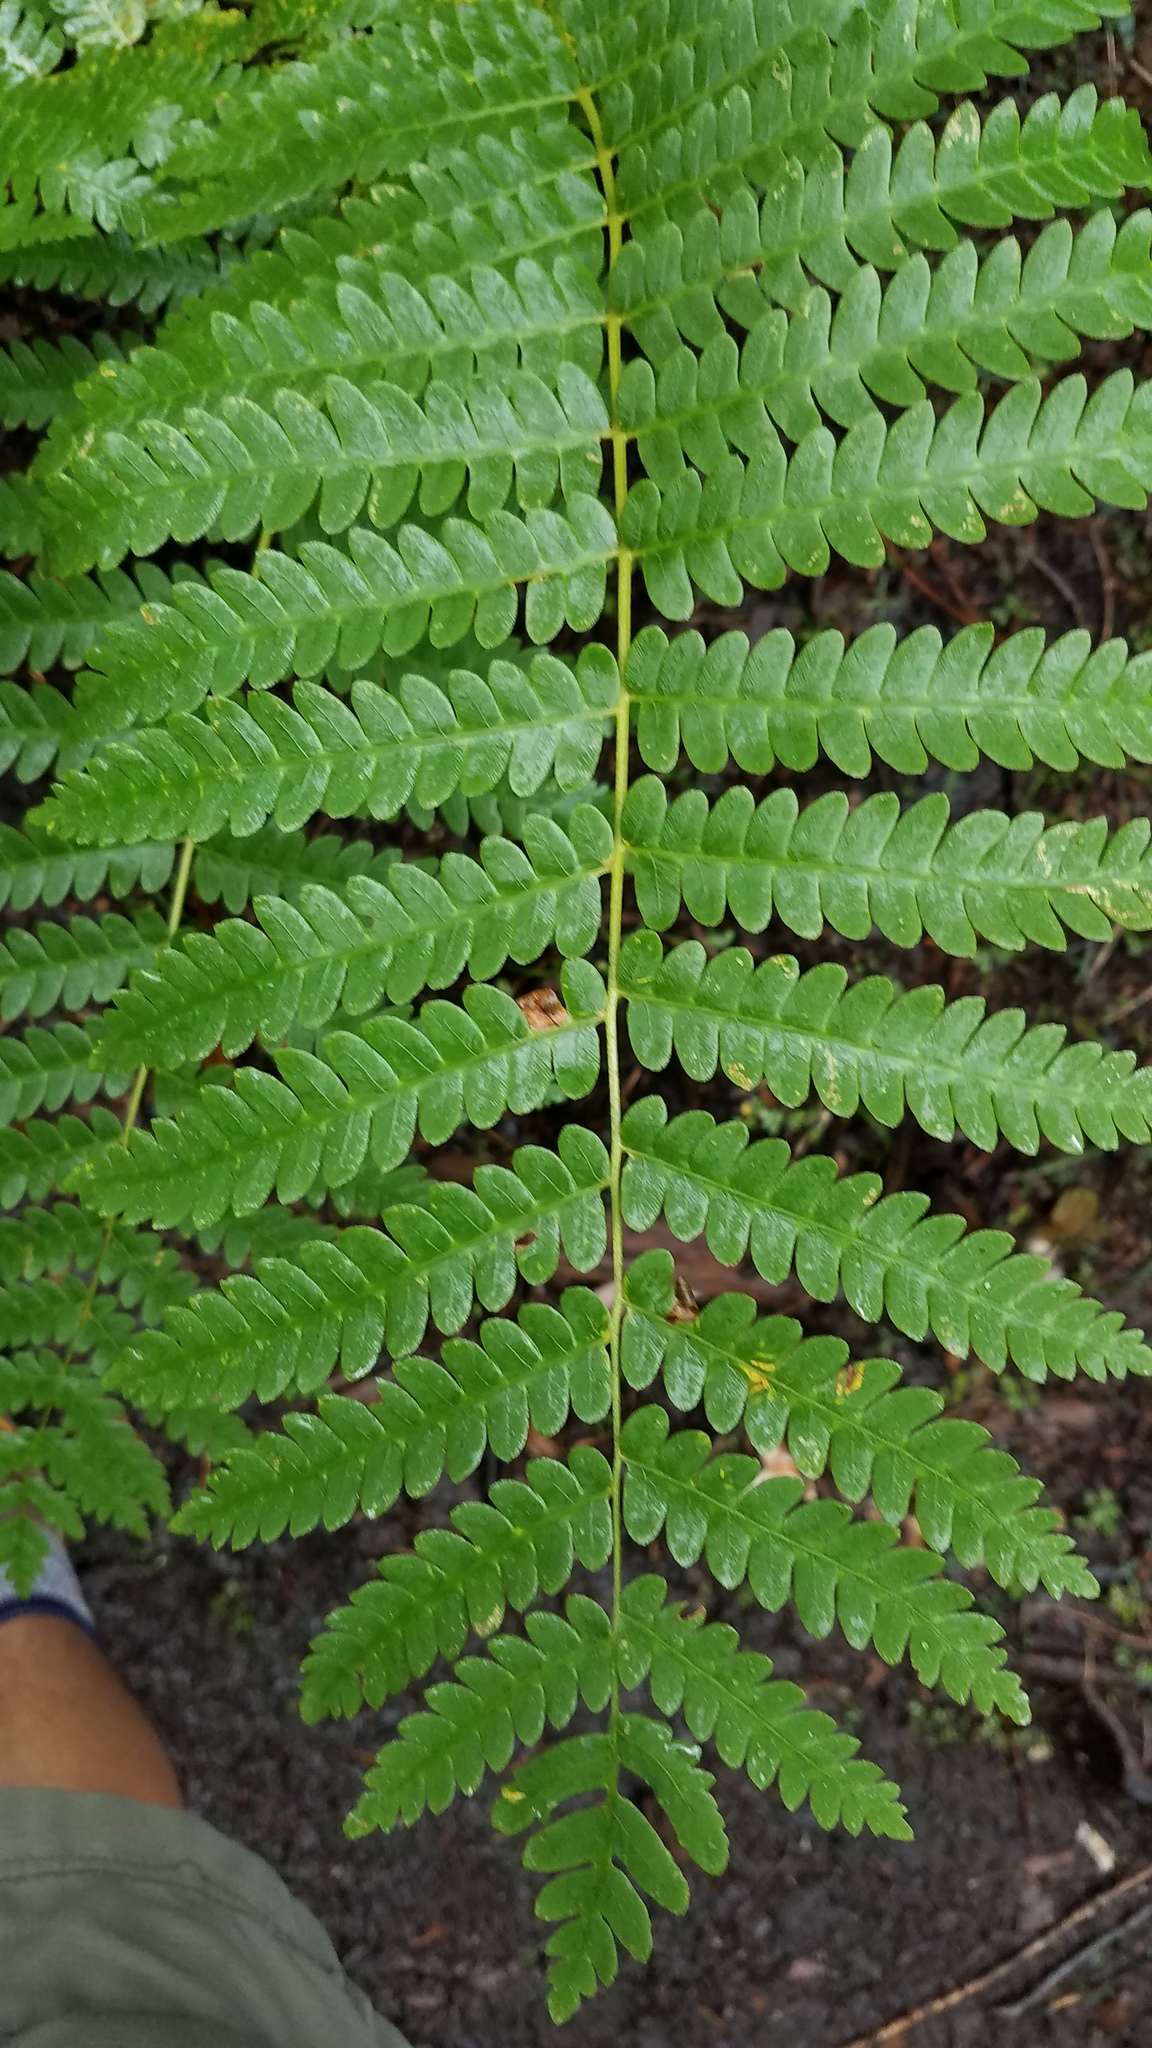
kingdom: Plantae
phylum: Tracheophyta
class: Polypodiopsida
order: Osmundales
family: Osmundaceae
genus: Osmundastrum
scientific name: Osmundastrum cinnamomeum
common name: Cinnamon fern
